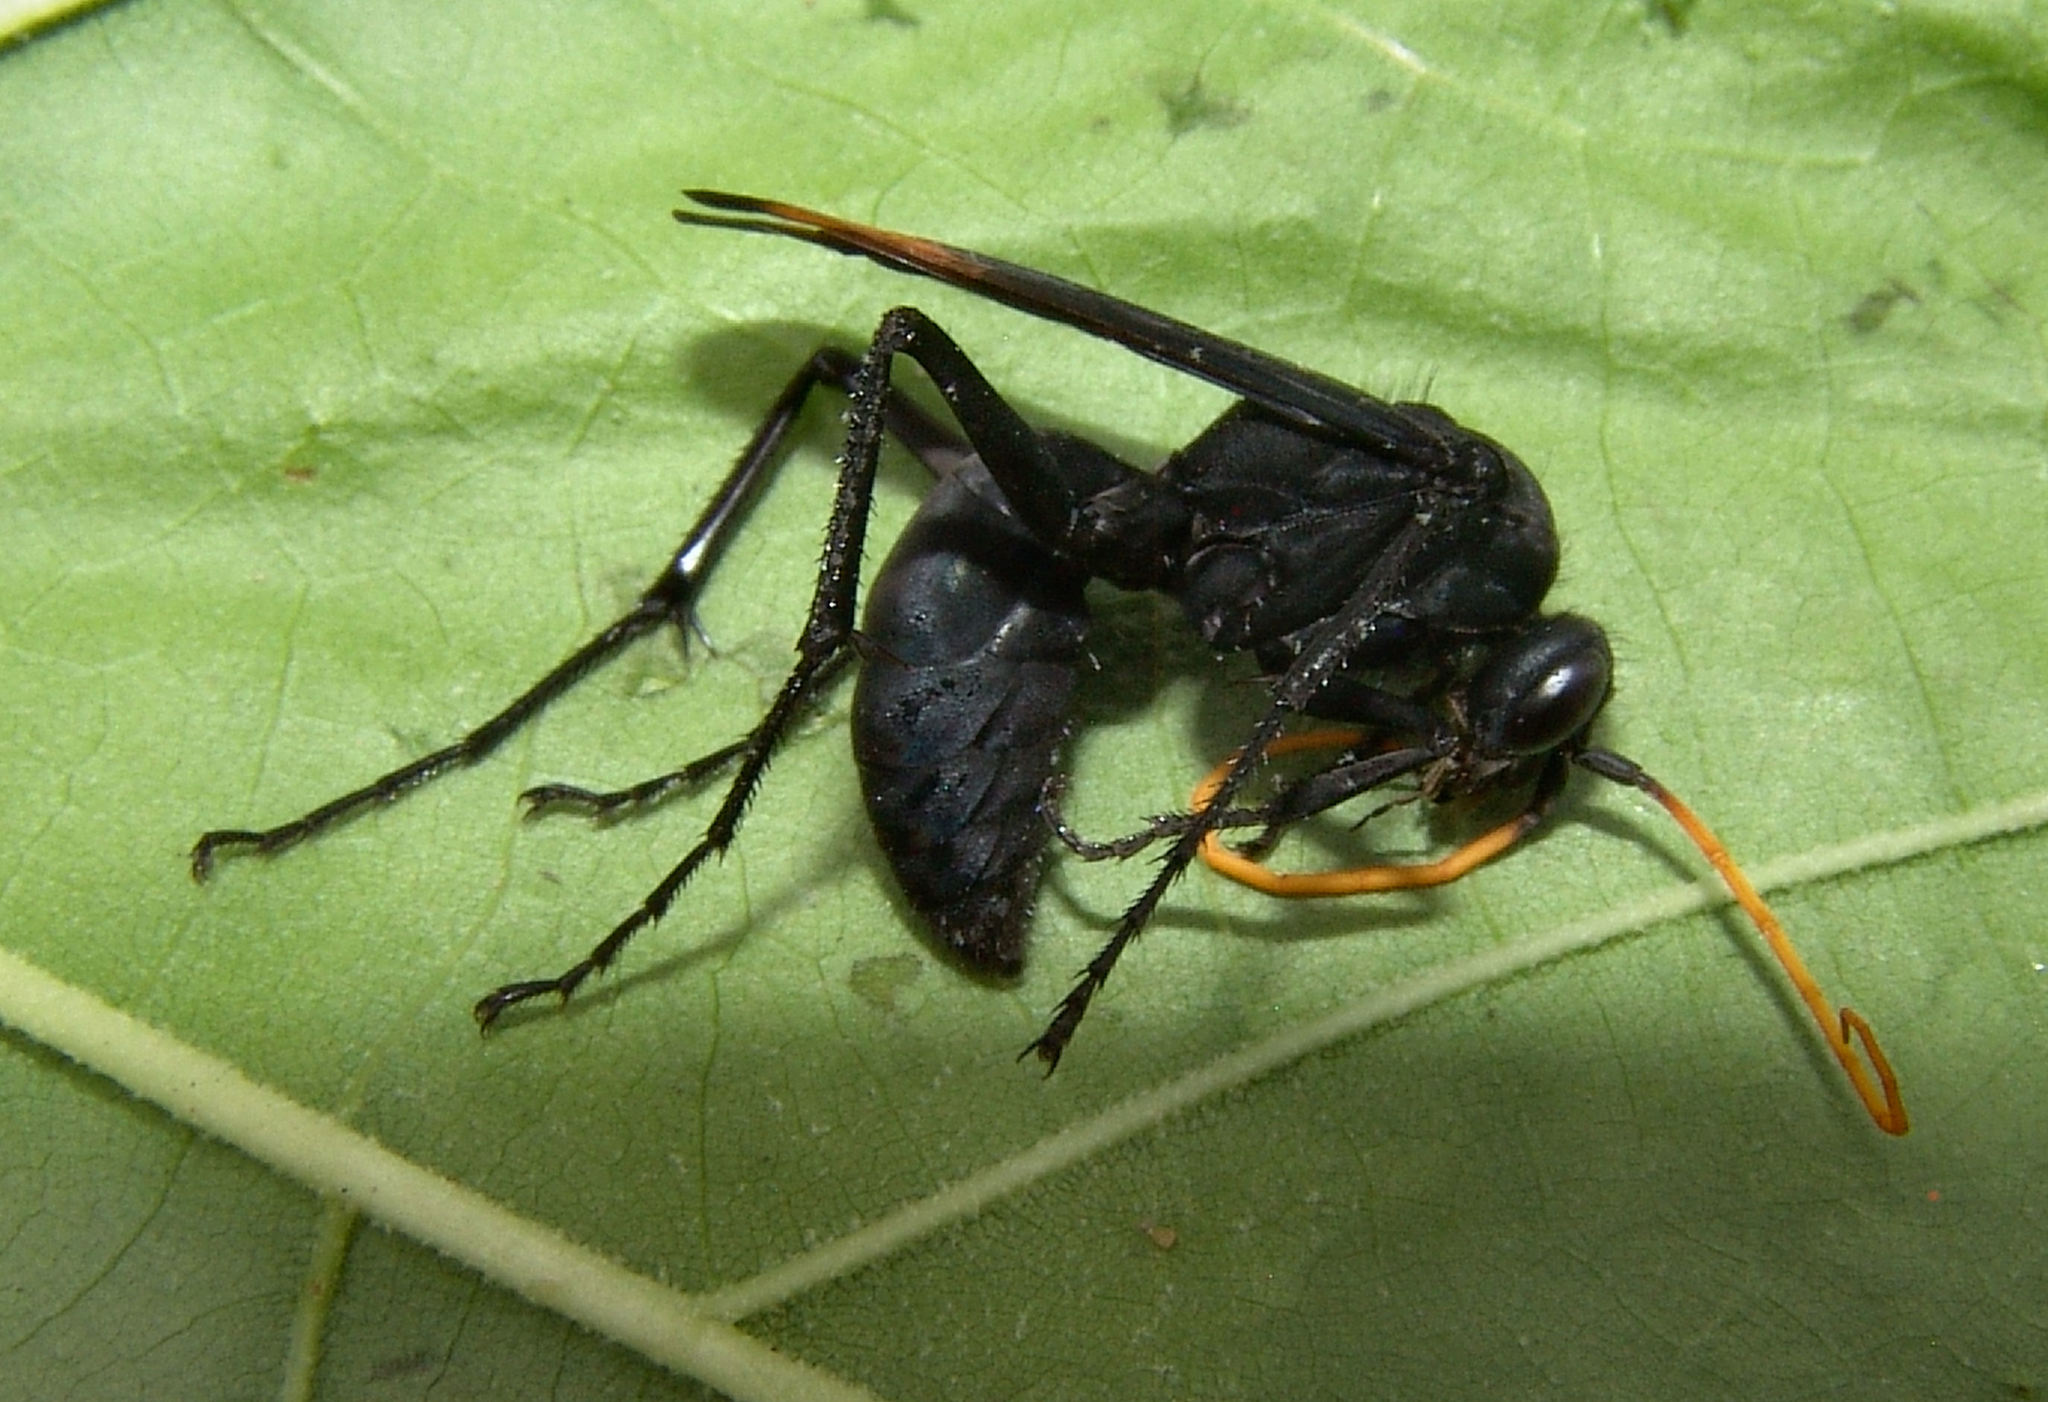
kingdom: Animalia
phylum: Arthropoda
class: Insecta
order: Hymenoptera
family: Pompilidae
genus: Entypus
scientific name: Entypus unifasciatus
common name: Eastern tawny-horned spider wasp
